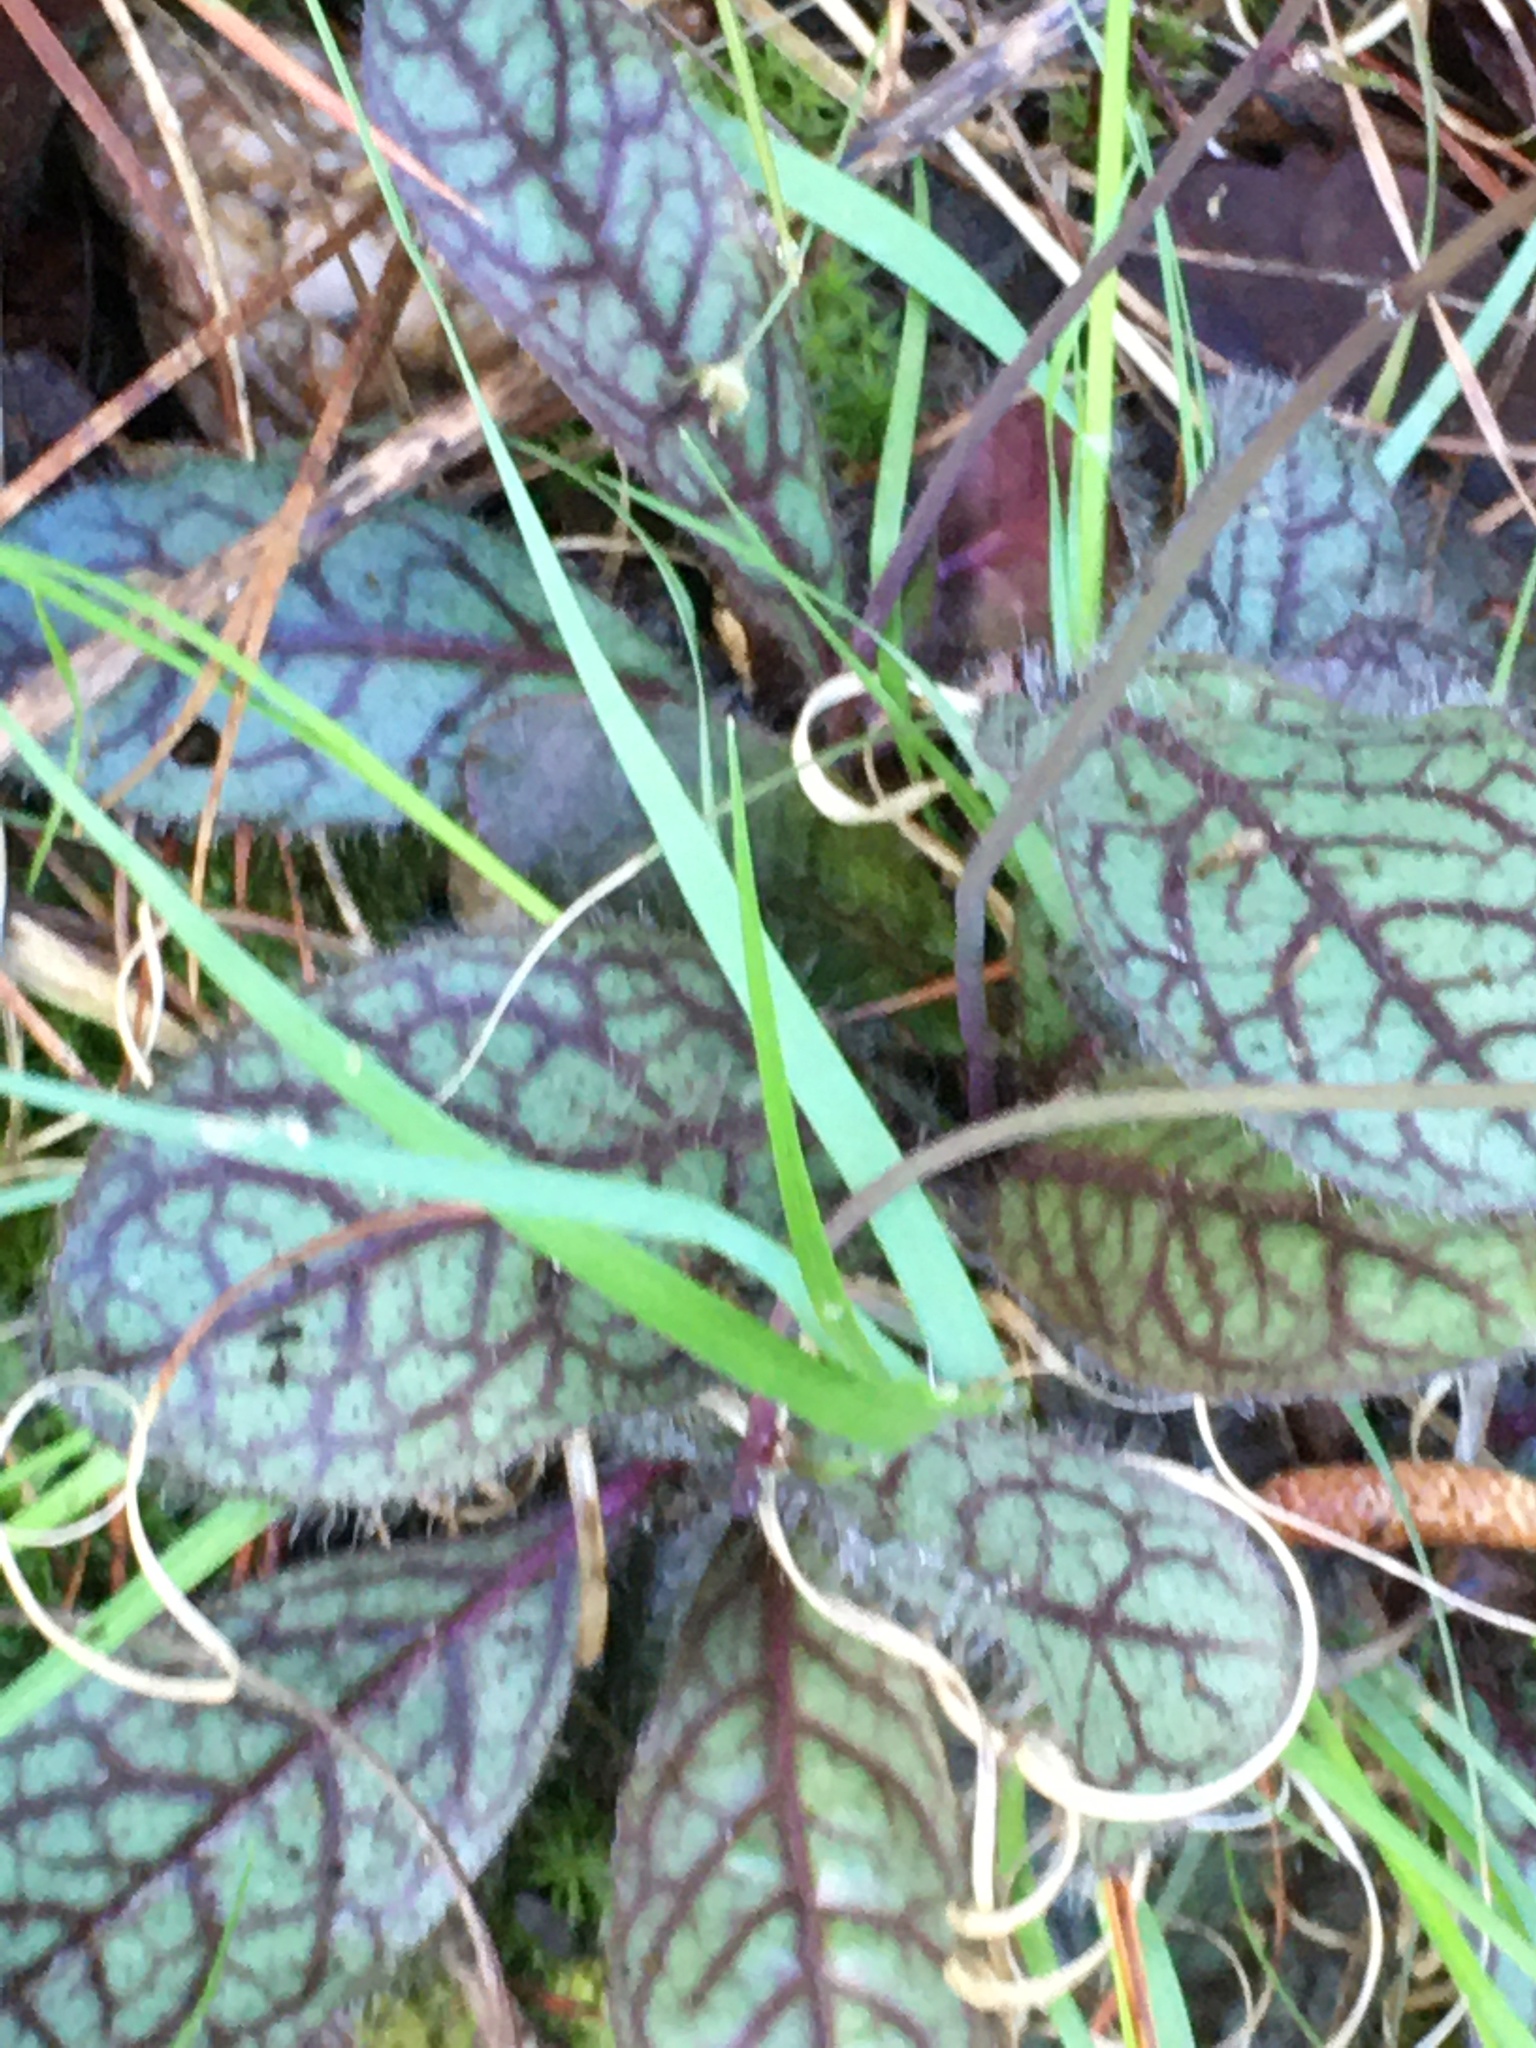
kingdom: Plantae
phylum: Tracheophyta
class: Magnoliopsida
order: Asterales
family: Asteraceae
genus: Hieracium
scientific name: Hieracium venosum
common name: Rattlesnake hawkweed
